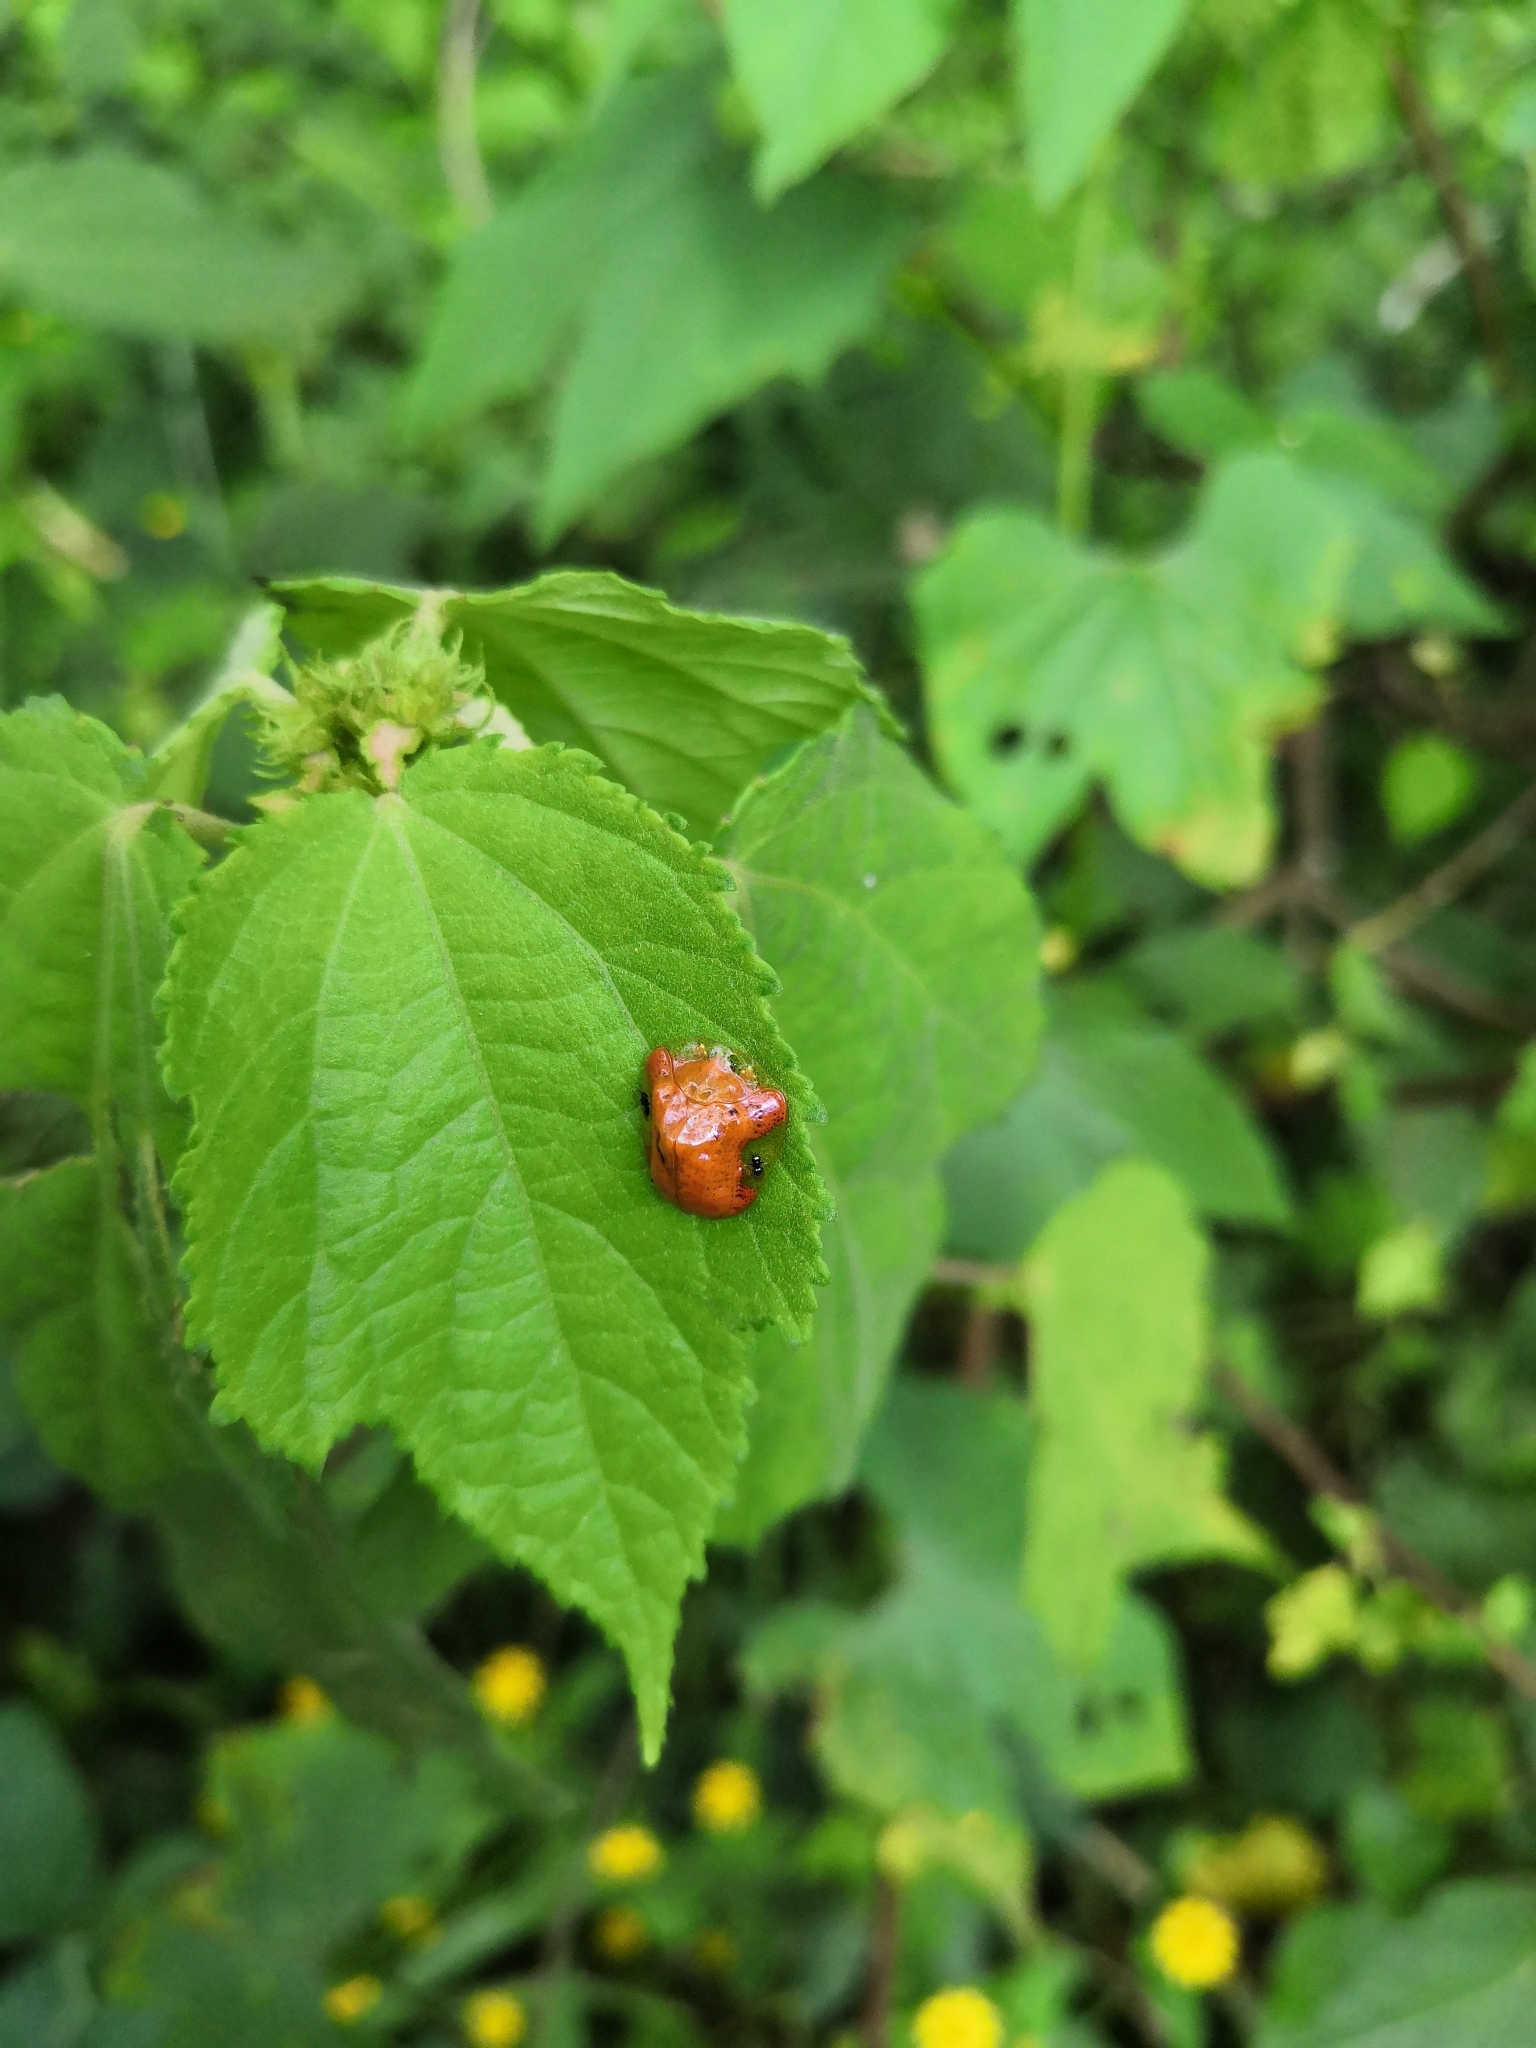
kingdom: Animalia
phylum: Arthropoda
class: Insecta
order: Coleoptera
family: Chrysomelidae
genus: Charidotella
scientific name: Charidotella tuberculata
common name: Tortoise beetle
